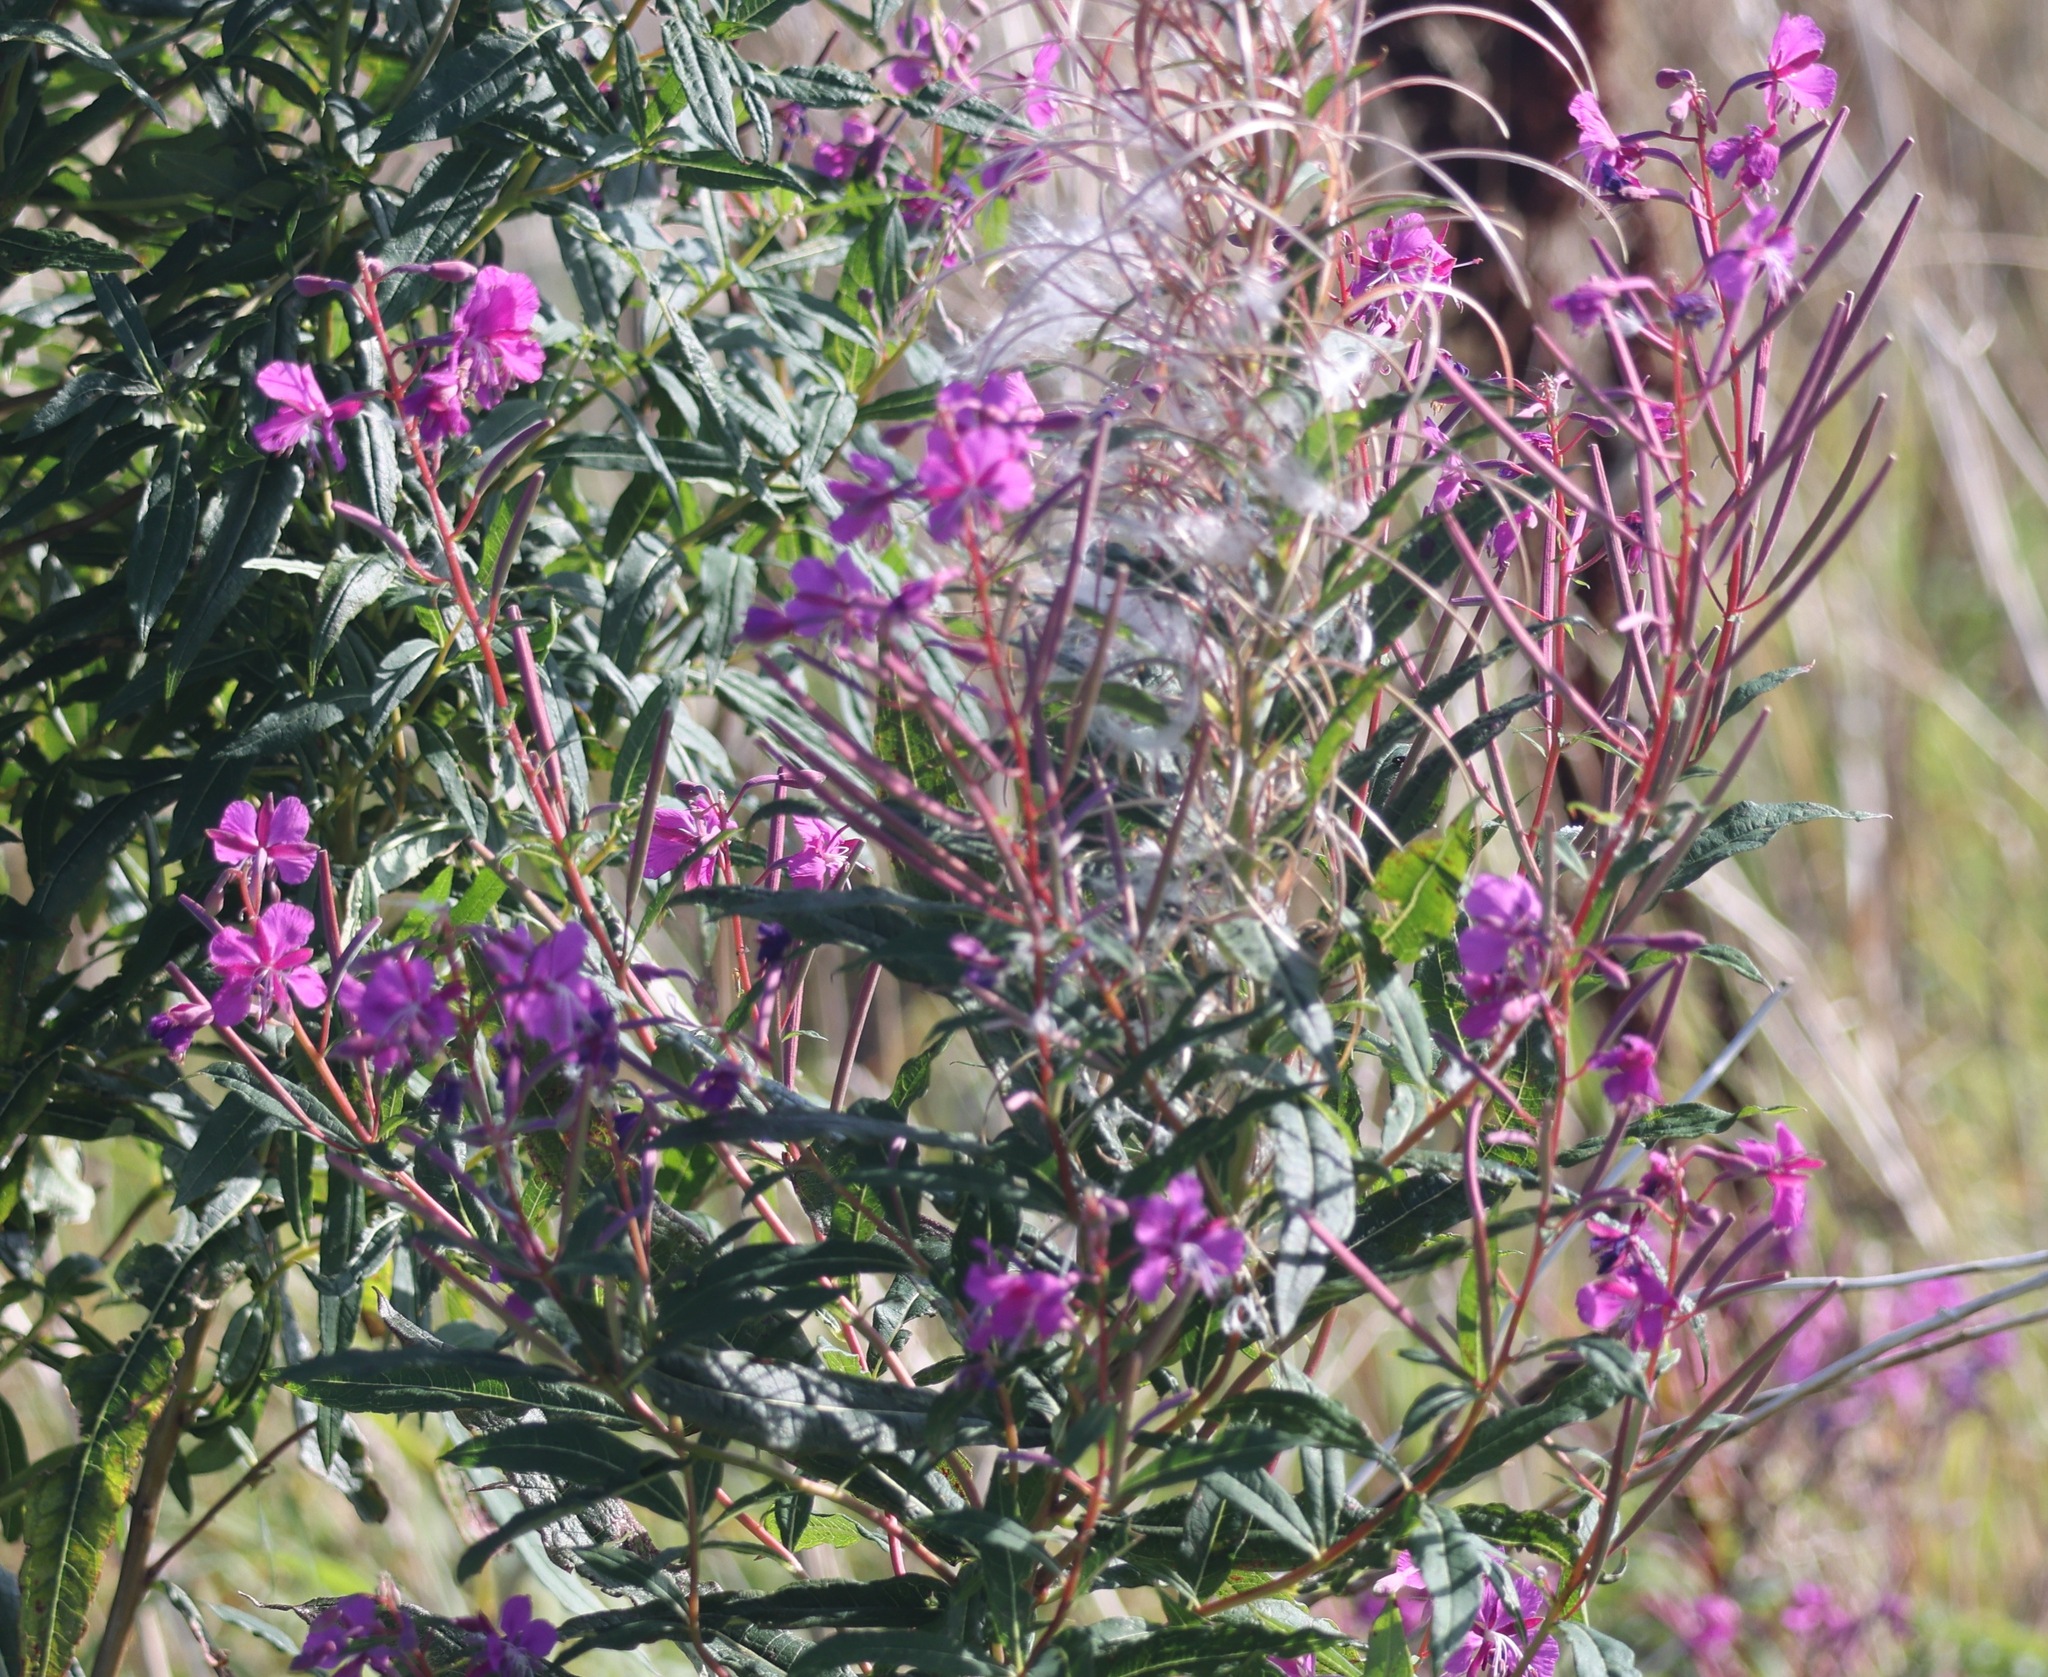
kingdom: Plantae
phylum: Tracheophyta
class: Magnoliopsida
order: Myrtales
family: Onagraceae
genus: Chamaenerion
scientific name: Chamaenerion angustifolium
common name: Fireweed
